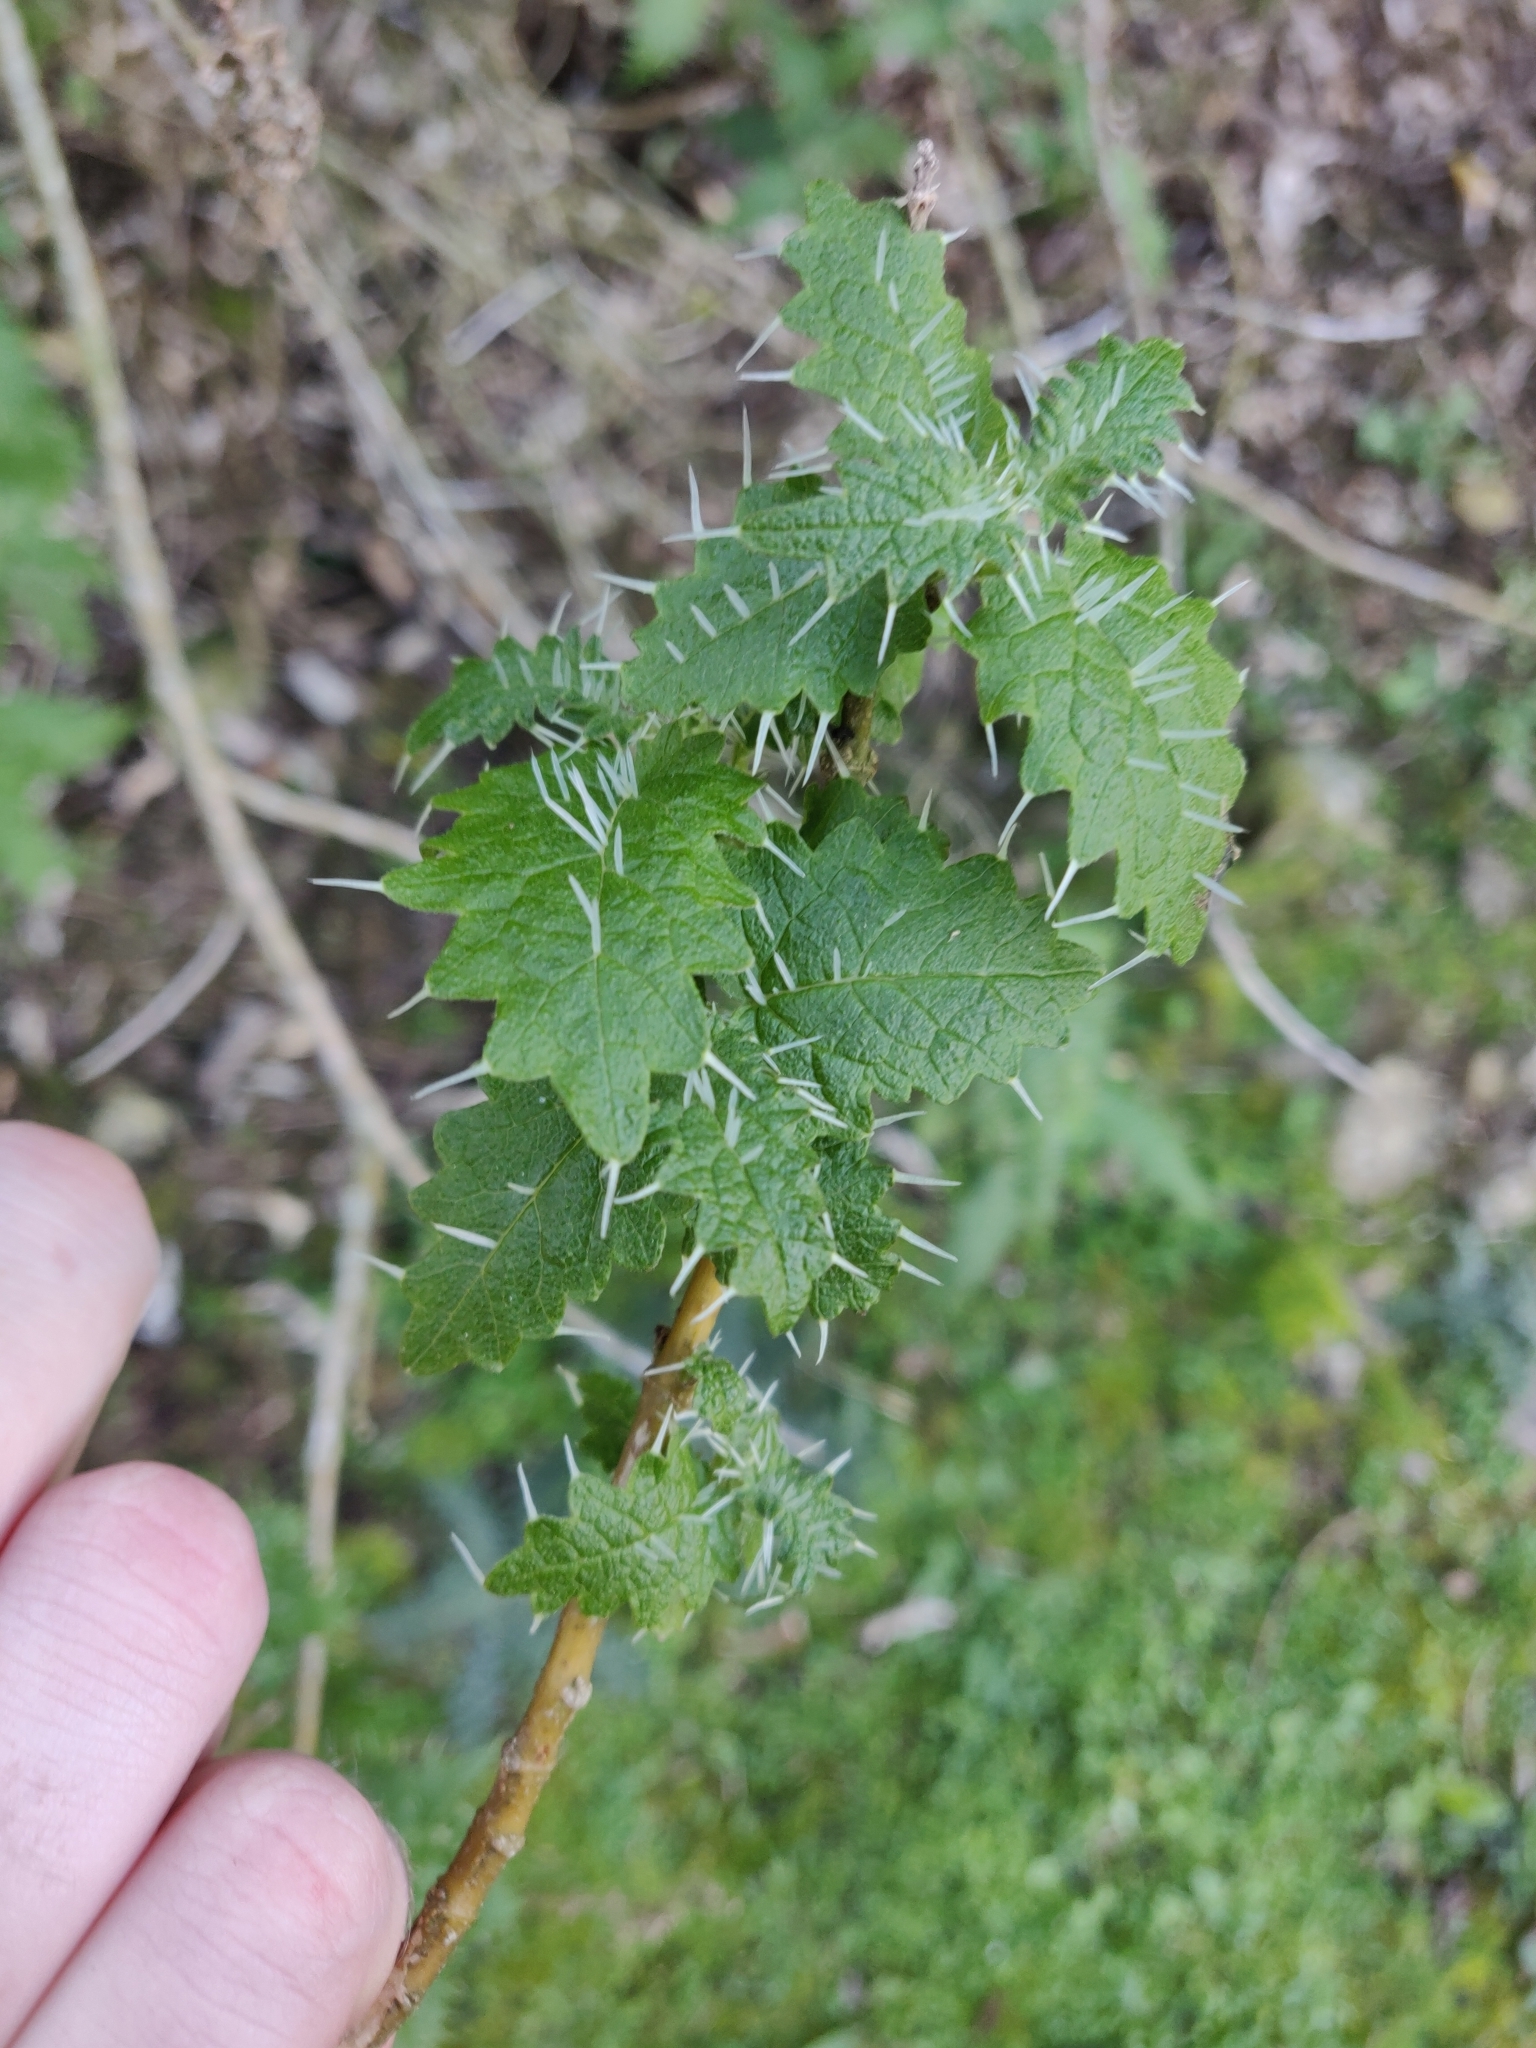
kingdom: Plantae
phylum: Tracheophyta
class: Magnoliopsida
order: Rosales
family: Urticaceae
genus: Urtica
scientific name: Urtica ferox
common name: Tree nettle
